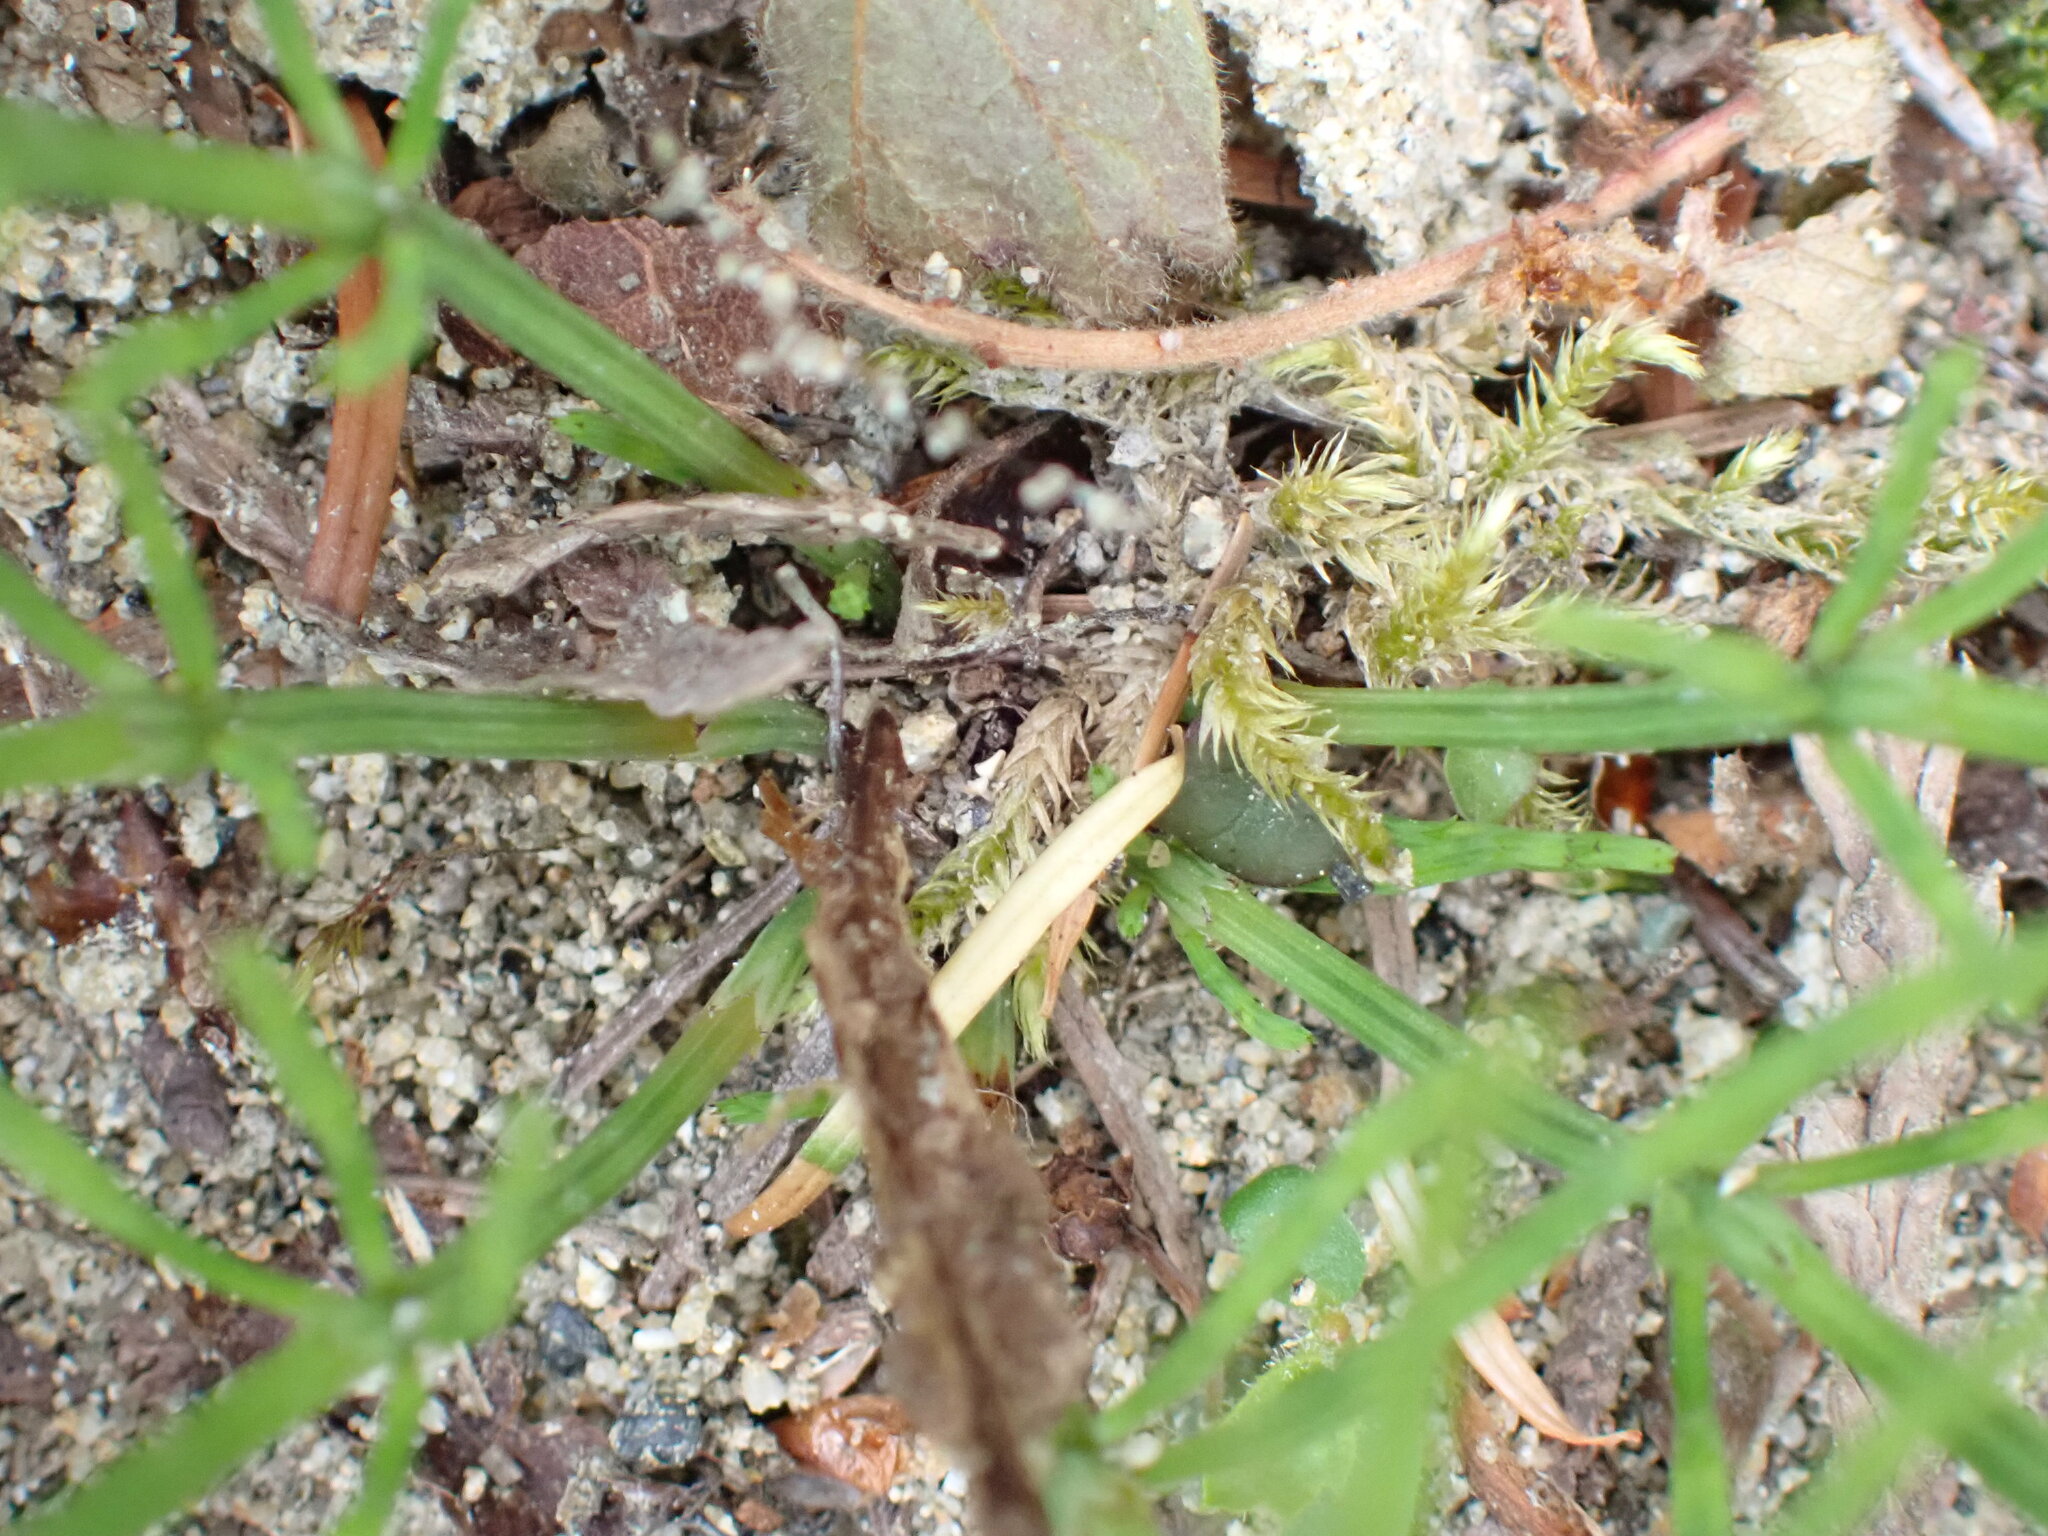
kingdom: Plantae
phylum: Tracheophyta
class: Polypodiopsida
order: Equisetales
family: Equisetaceae
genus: Equisetum
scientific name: Equisetum arvense
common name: Field horsetail
